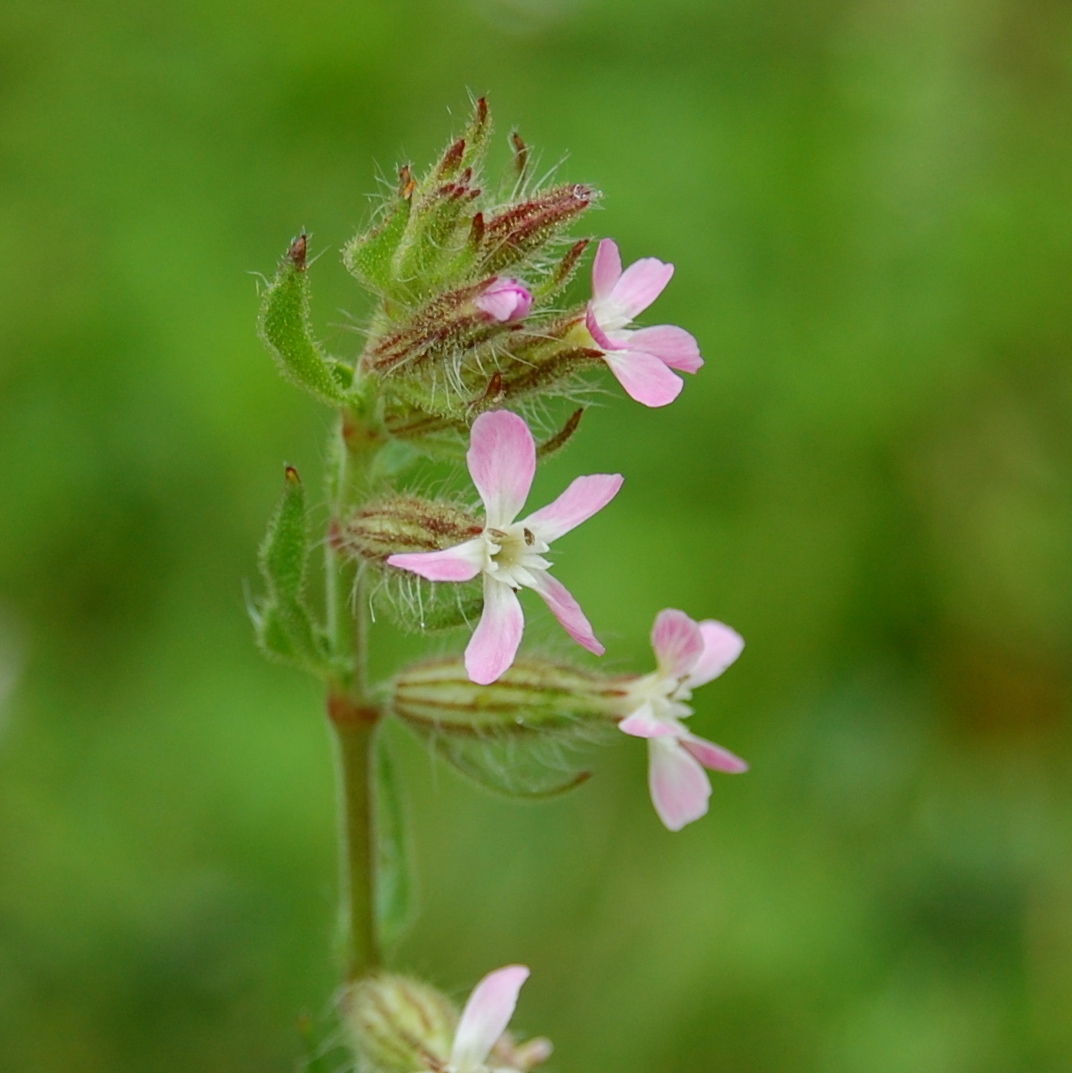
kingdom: Plantae
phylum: Tracheophyta
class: Magnoliopsida
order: Caryophyllales
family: Caryophyllaceae
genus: Silene
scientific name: Silene gallica
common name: Small-flowered catchfly
